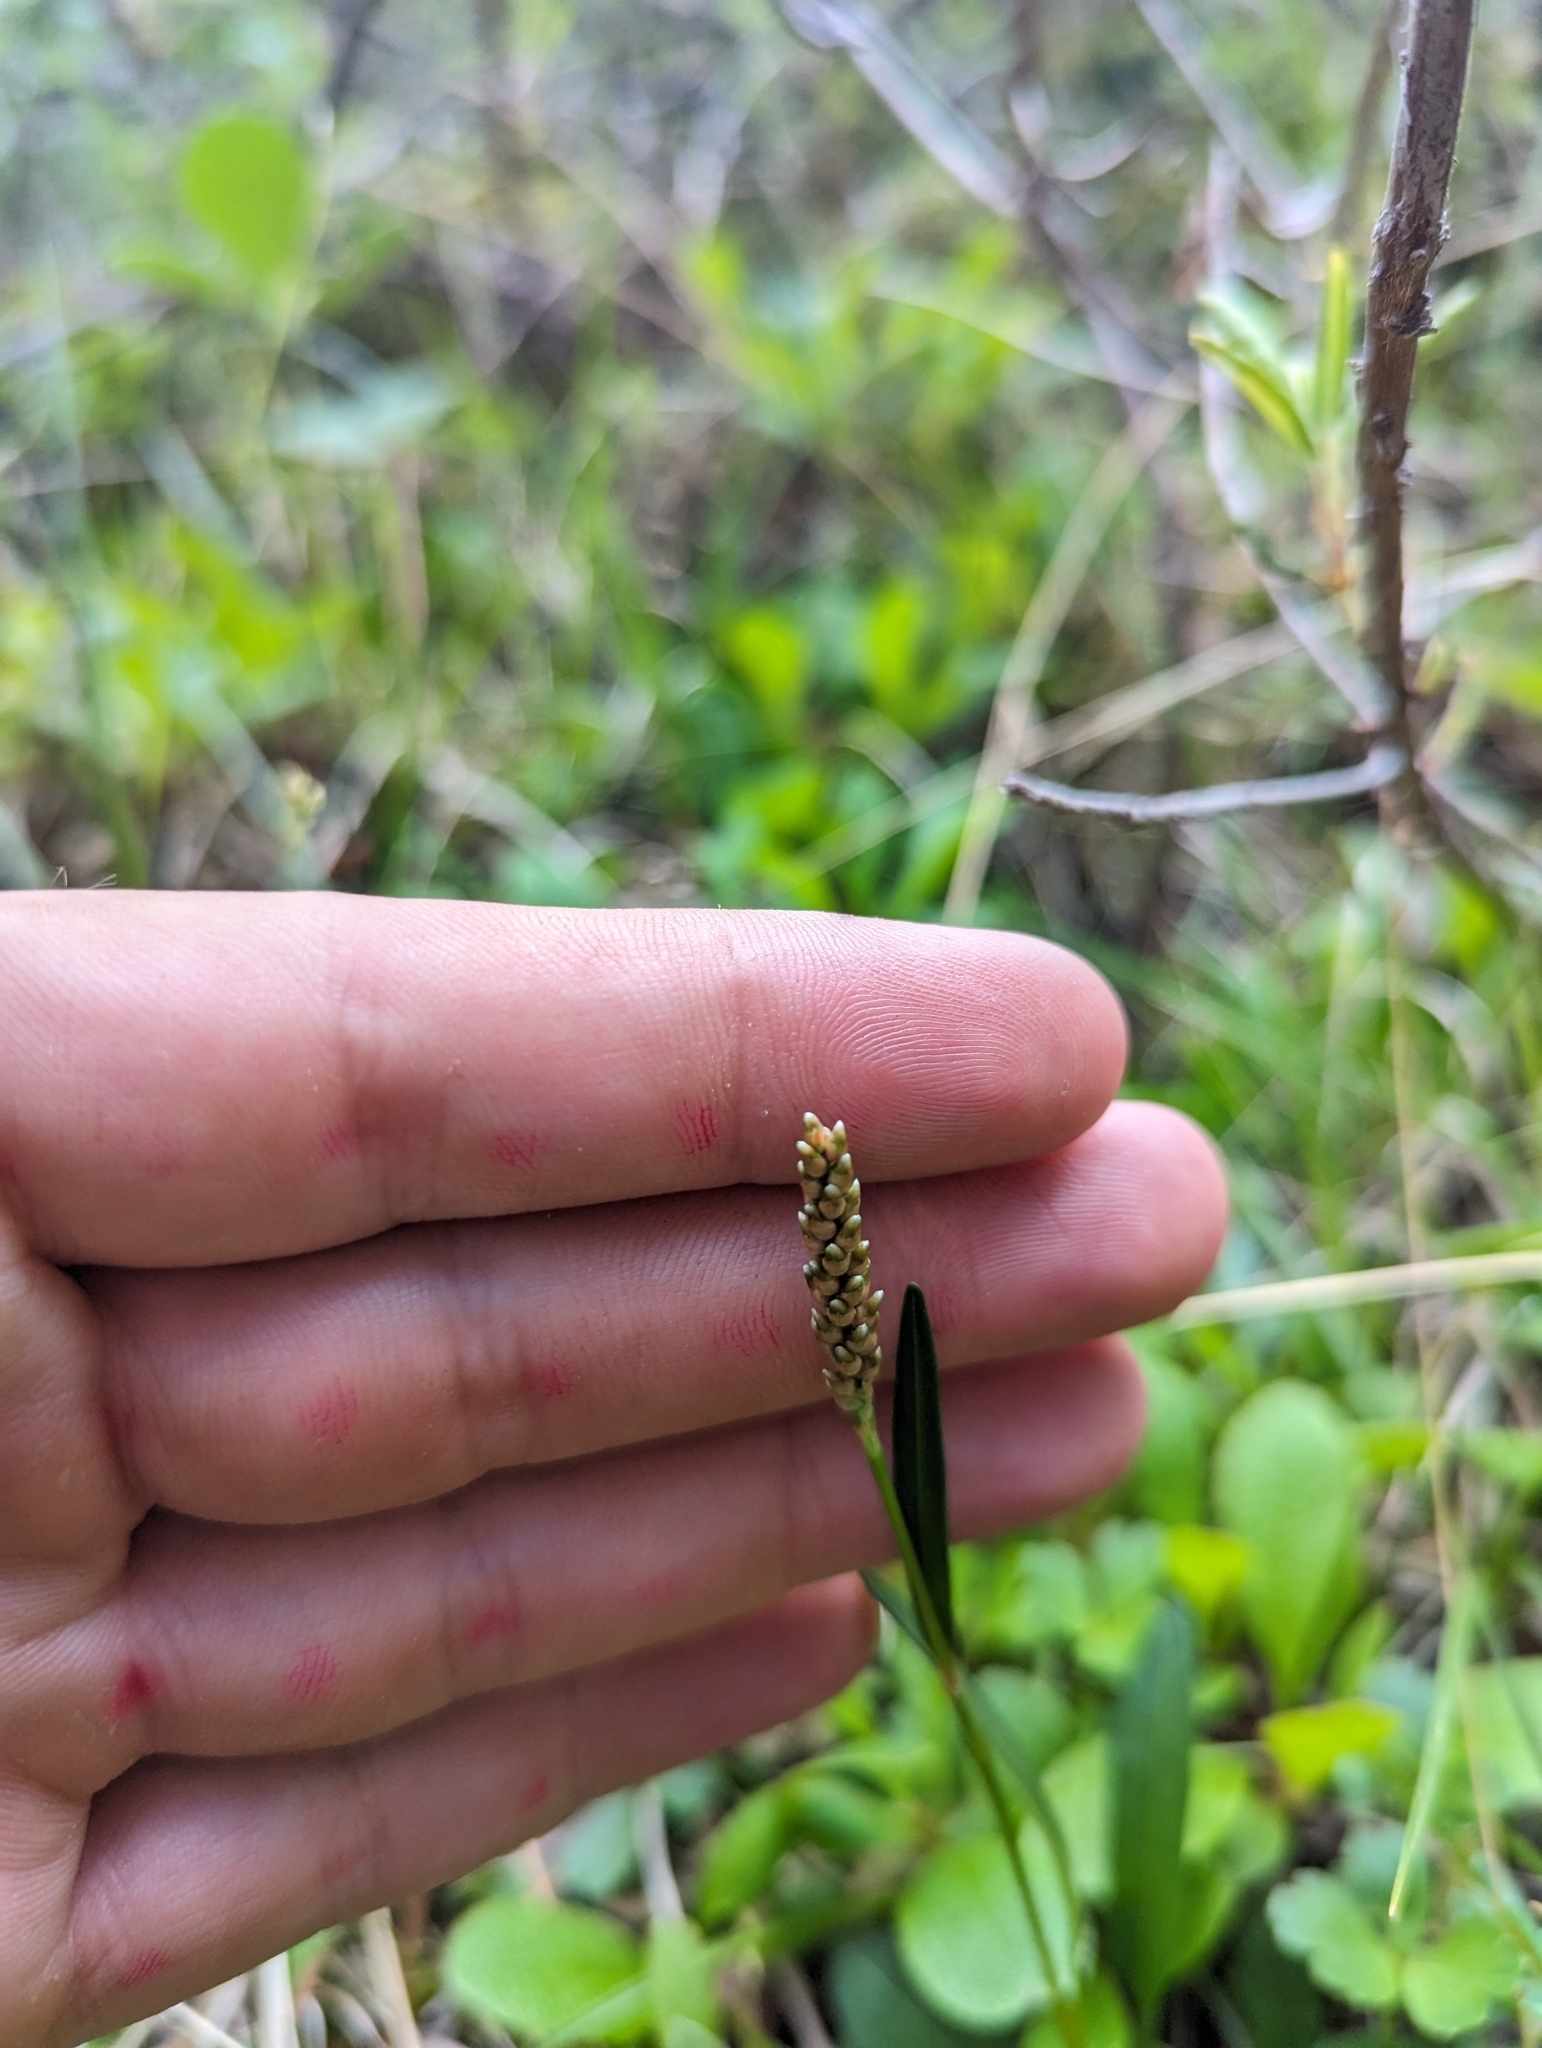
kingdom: Plantae
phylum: Tracheophyta
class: Magnoliopsida
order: Caryophyllales
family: Polygonaceae
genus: Bistorta
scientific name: Bistorta vivipara
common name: Alpine bistort
